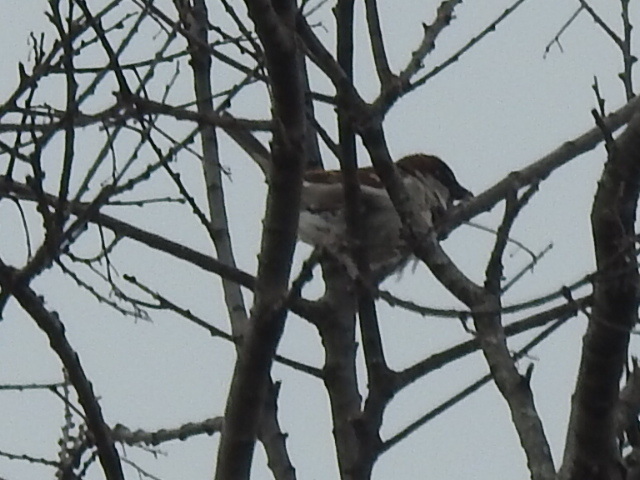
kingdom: Animalia
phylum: Chordata
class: Aves
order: Passeriformes
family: Passeridae
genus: Passer
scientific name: Passer domesticus
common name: House sparrow
